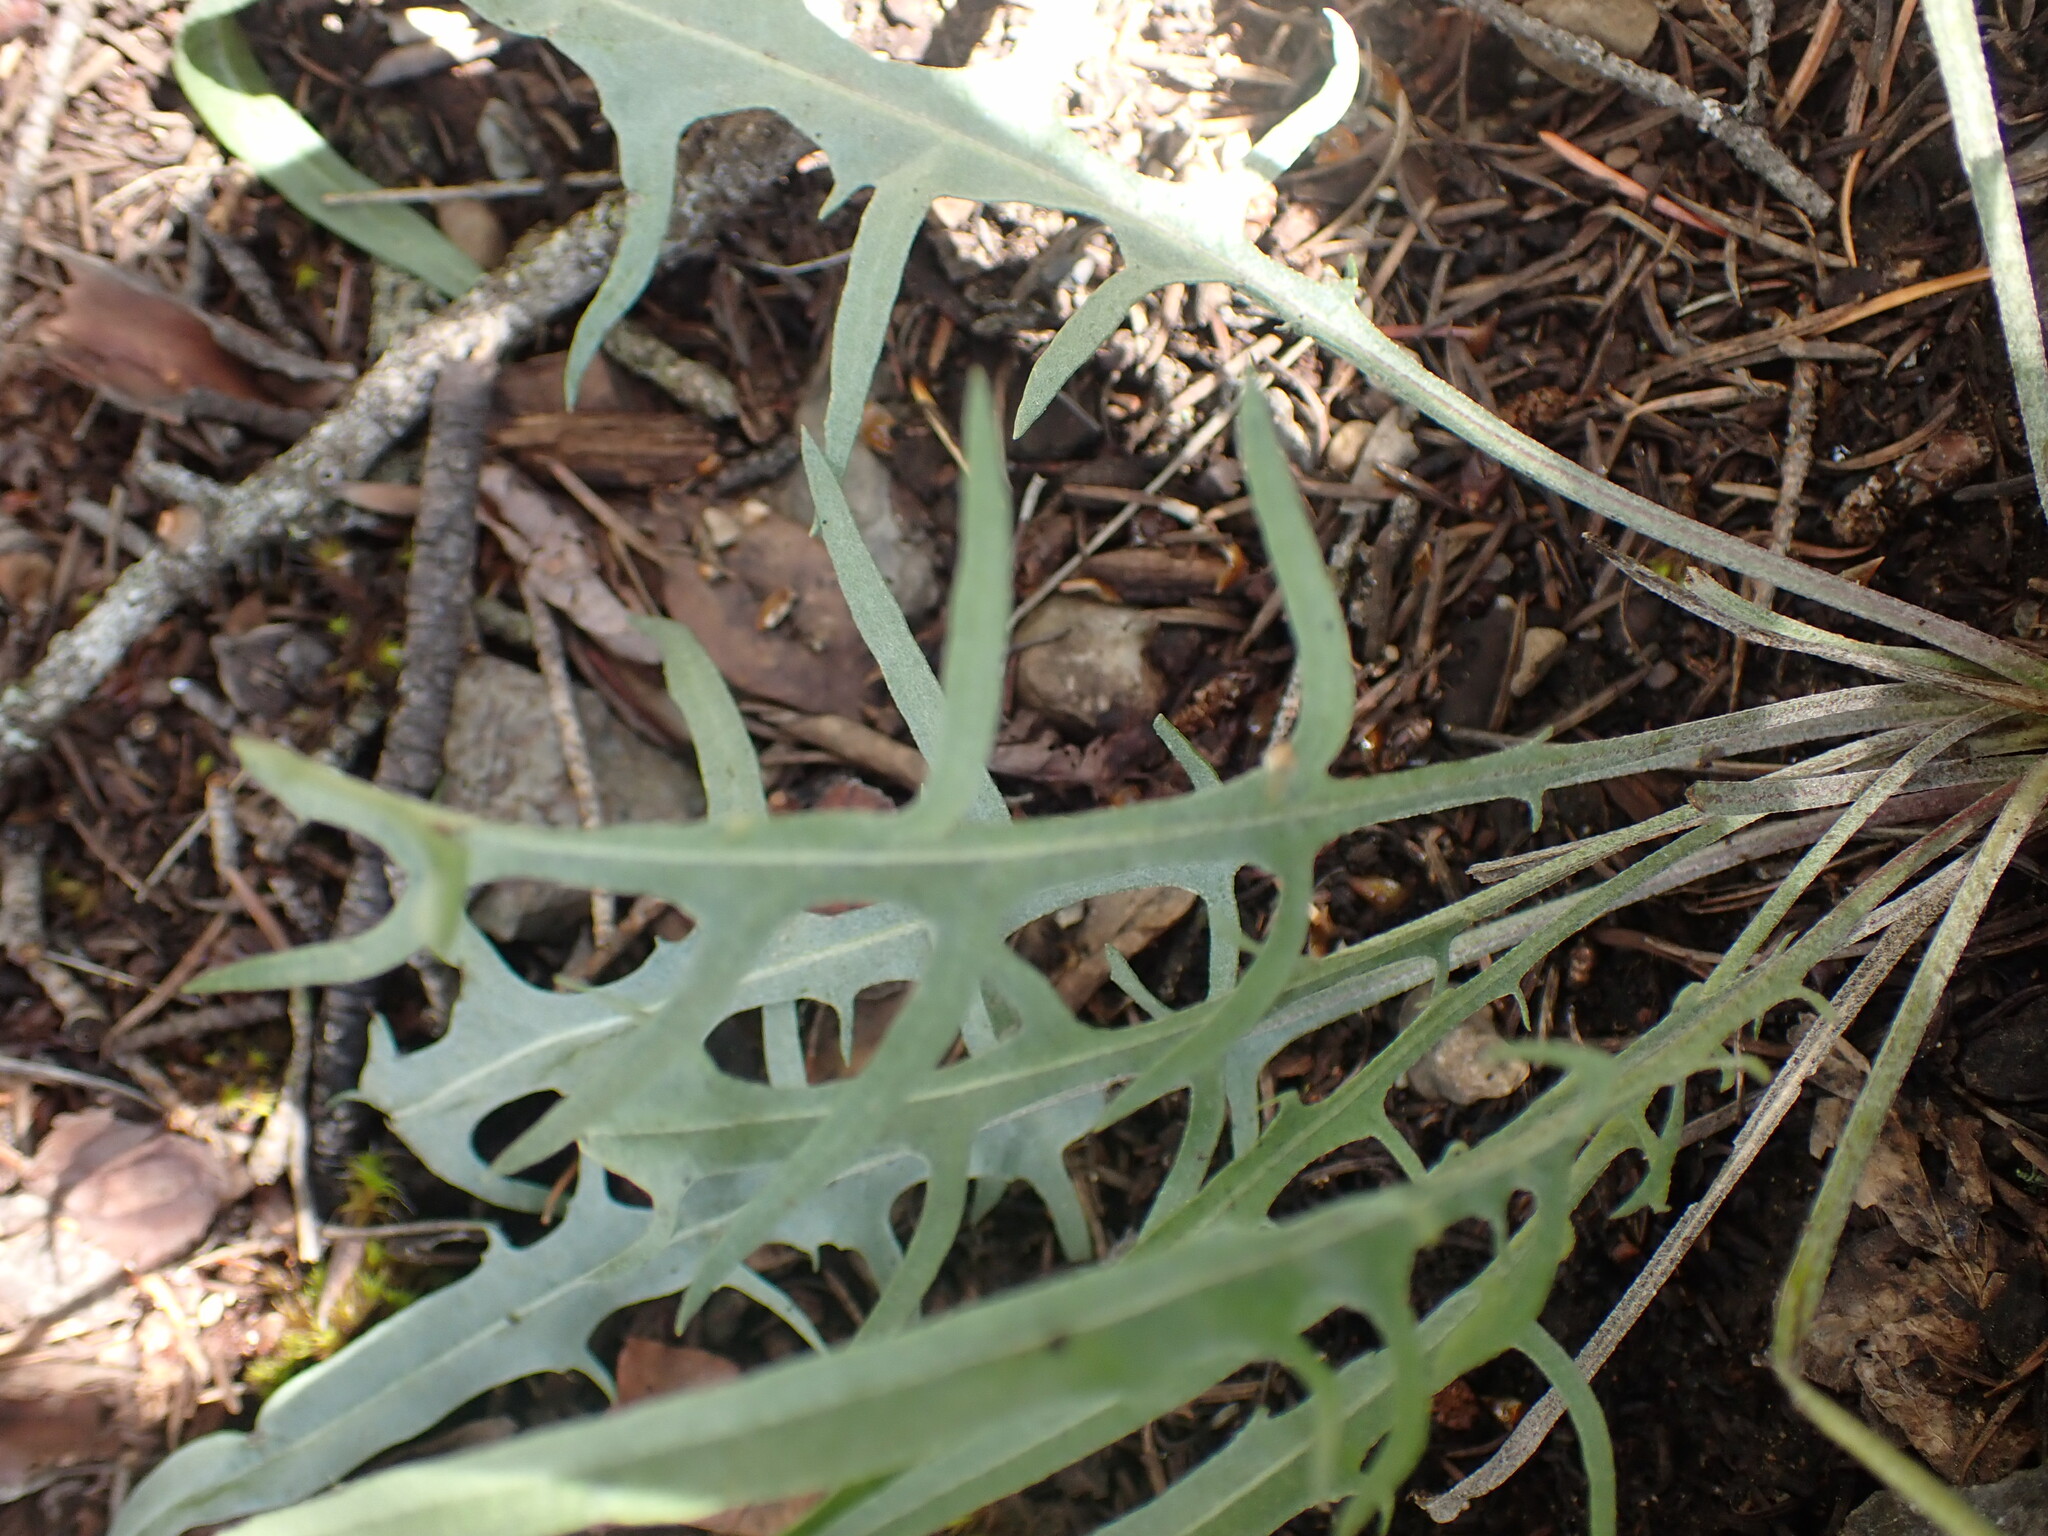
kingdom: Plantae
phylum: Tracheophyta
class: Magnoliopsida
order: Asterales
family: Asteraceae
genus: Crepis
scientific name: Crepis atribarba
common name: Dark hawk's-beard
